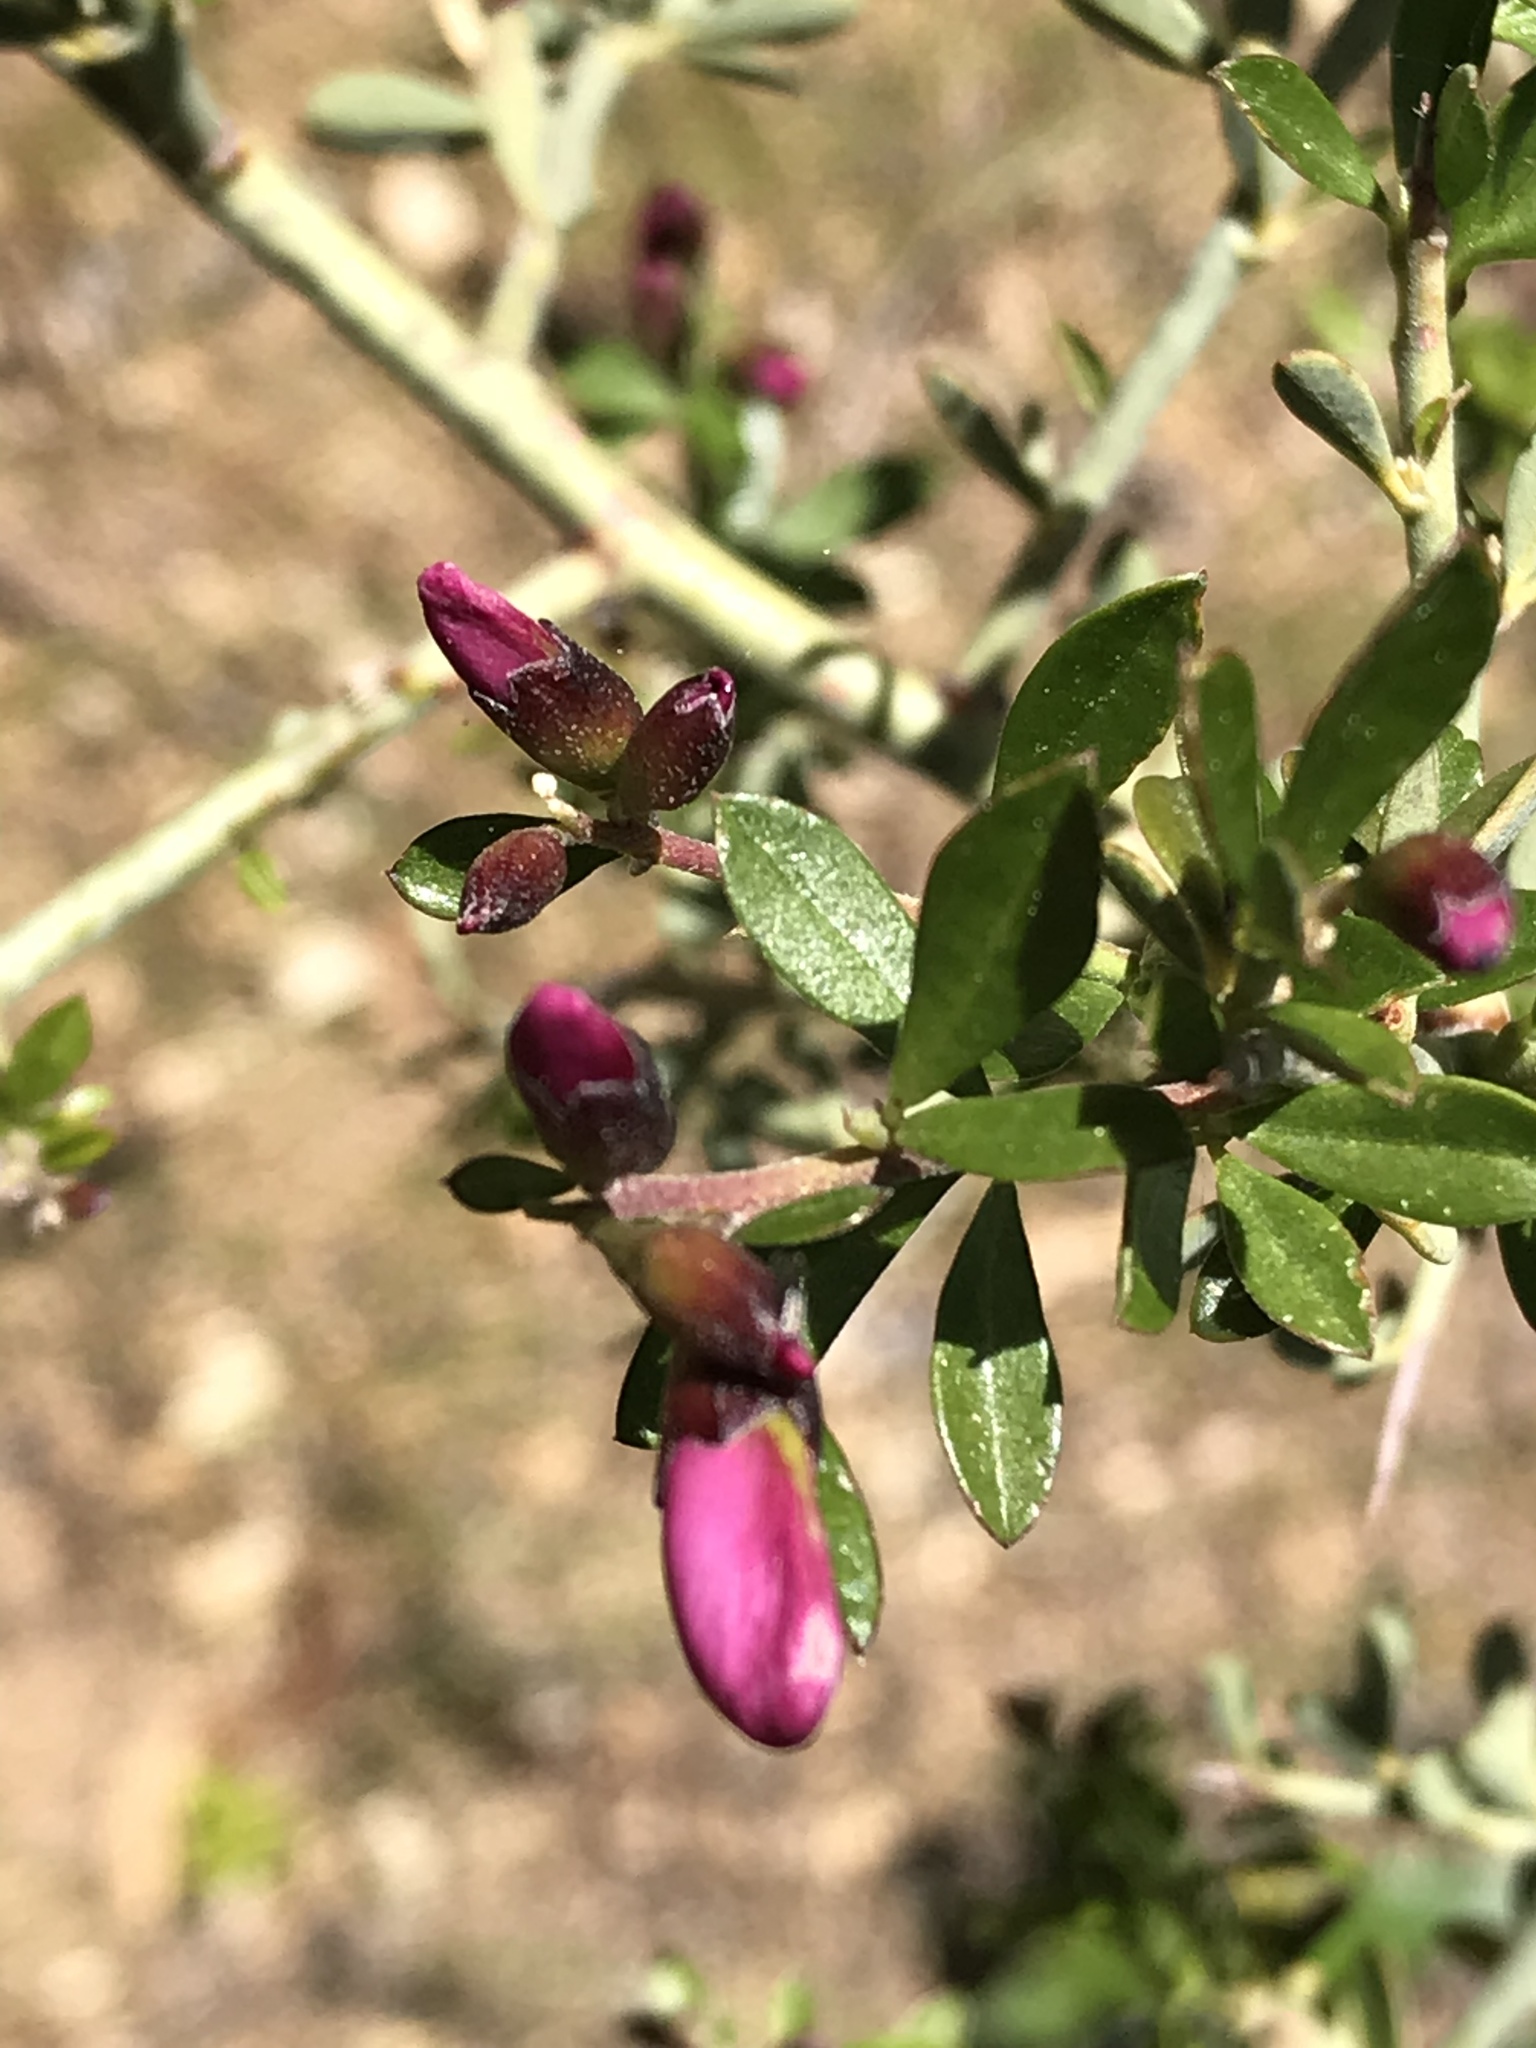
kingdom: Plantae
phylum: Tracheophyta
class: Magnoliopsida
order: Fabales
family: Fabaceae
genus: Pickeringia
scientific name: Pickeringia montana
